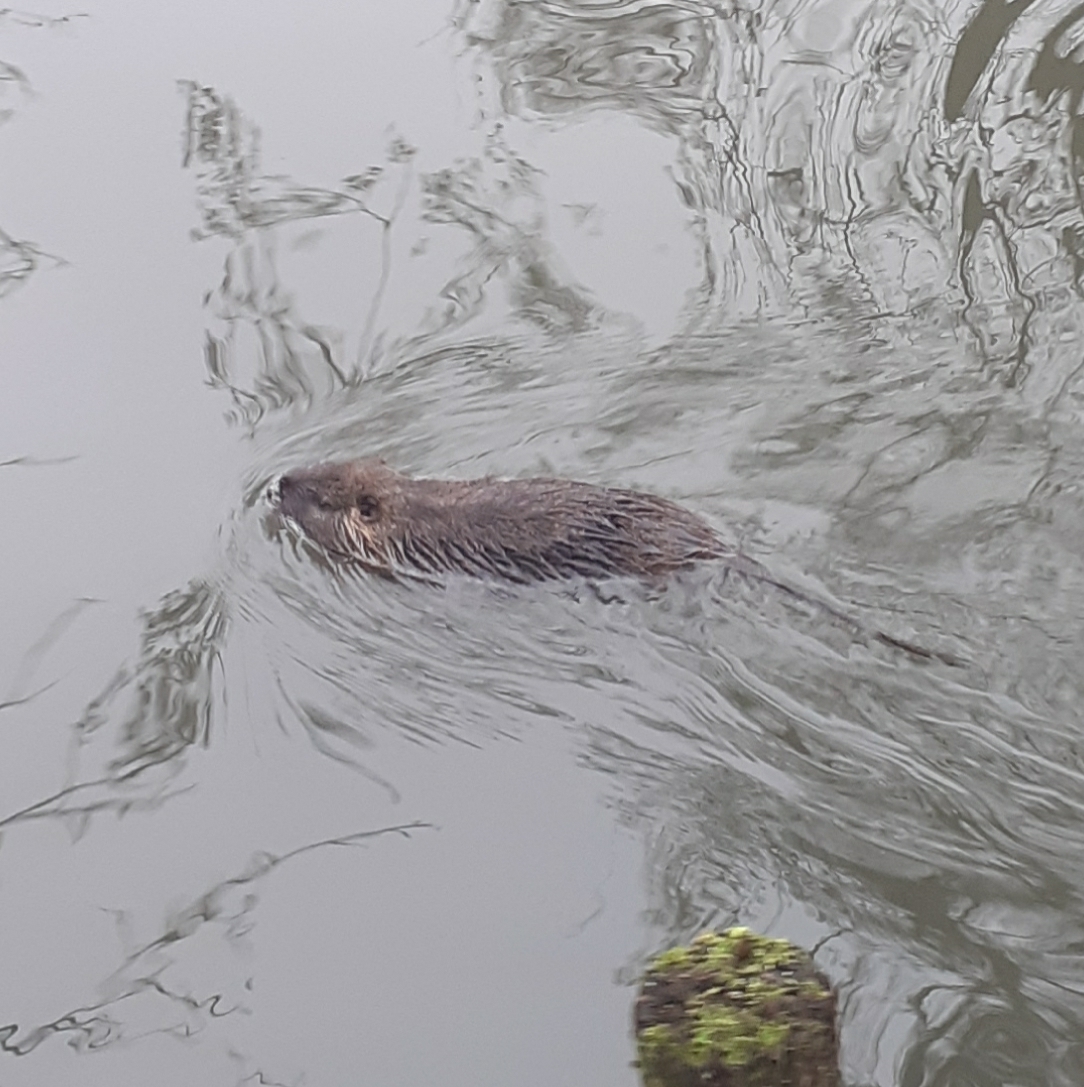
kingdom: Animalia
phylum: Chordata
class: Mammalia
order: Rodentia
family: Myocastoridae
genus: Myocastor
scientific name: Myocastor coypus
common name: Coypu
